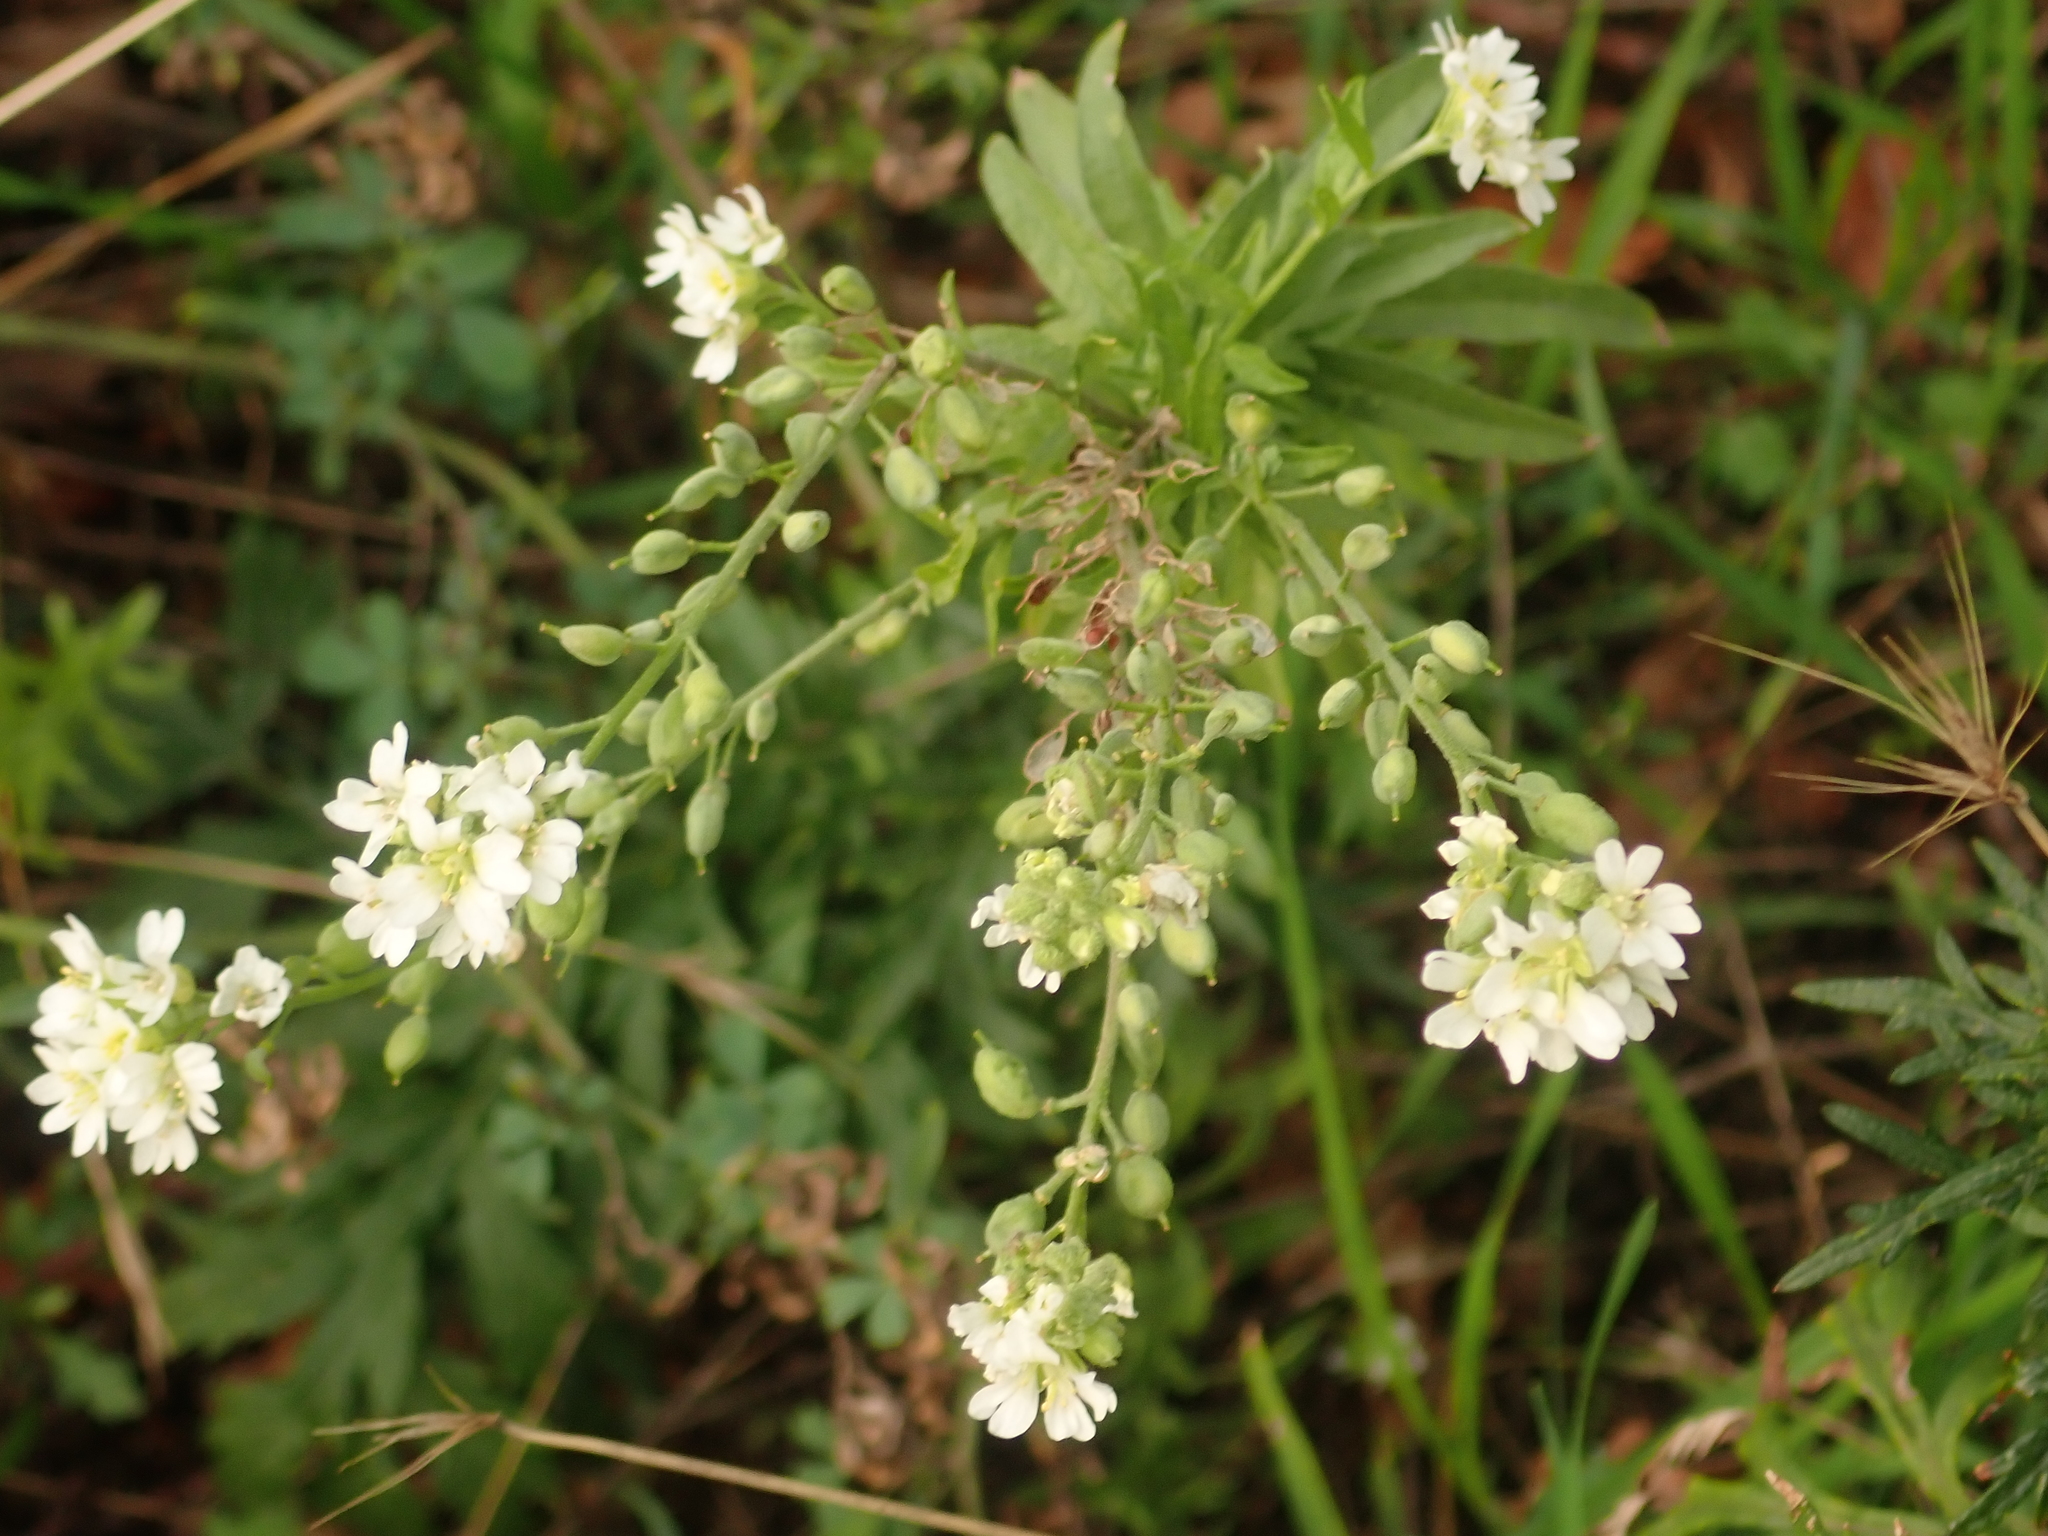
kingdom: Plantae
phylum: Tracheophyta
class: Magnoliopsida
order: Brassicales
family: Brassicaceae
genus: Berteroa
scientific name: Berteroa incana
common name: Hoary alison
